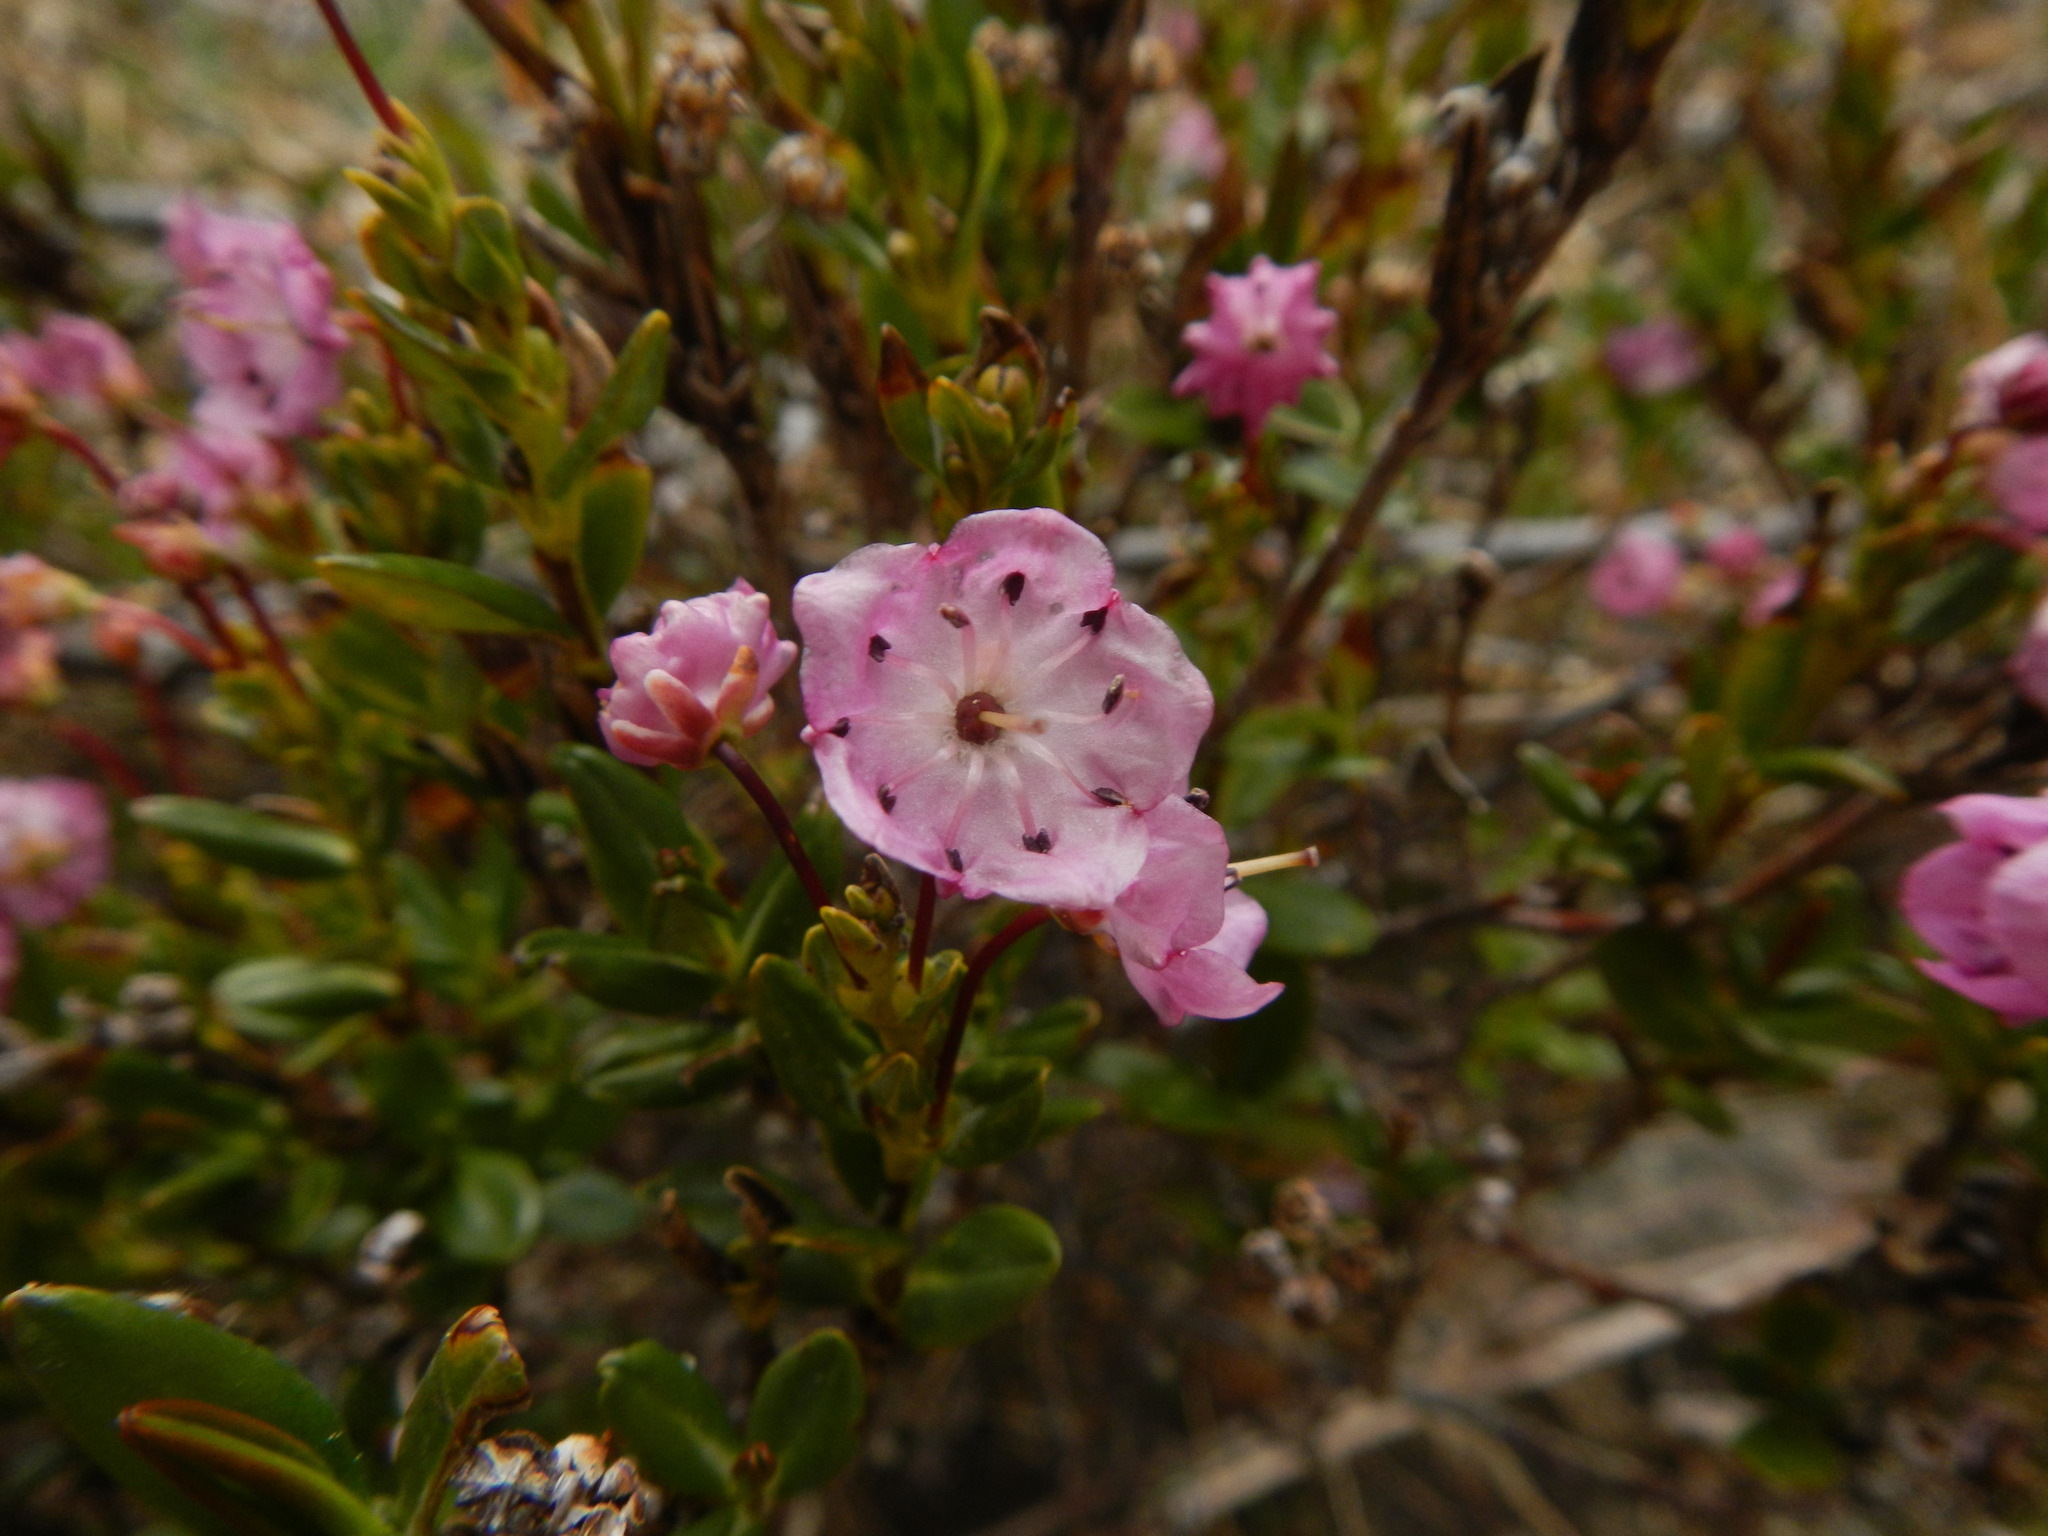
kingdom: Plantae
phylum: Tracheophyta
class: Magnoliopsida
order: Ericales
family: Ericaceae
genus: Kalmia
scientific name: Kalmia microphylla
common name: Alpine bog laurel
